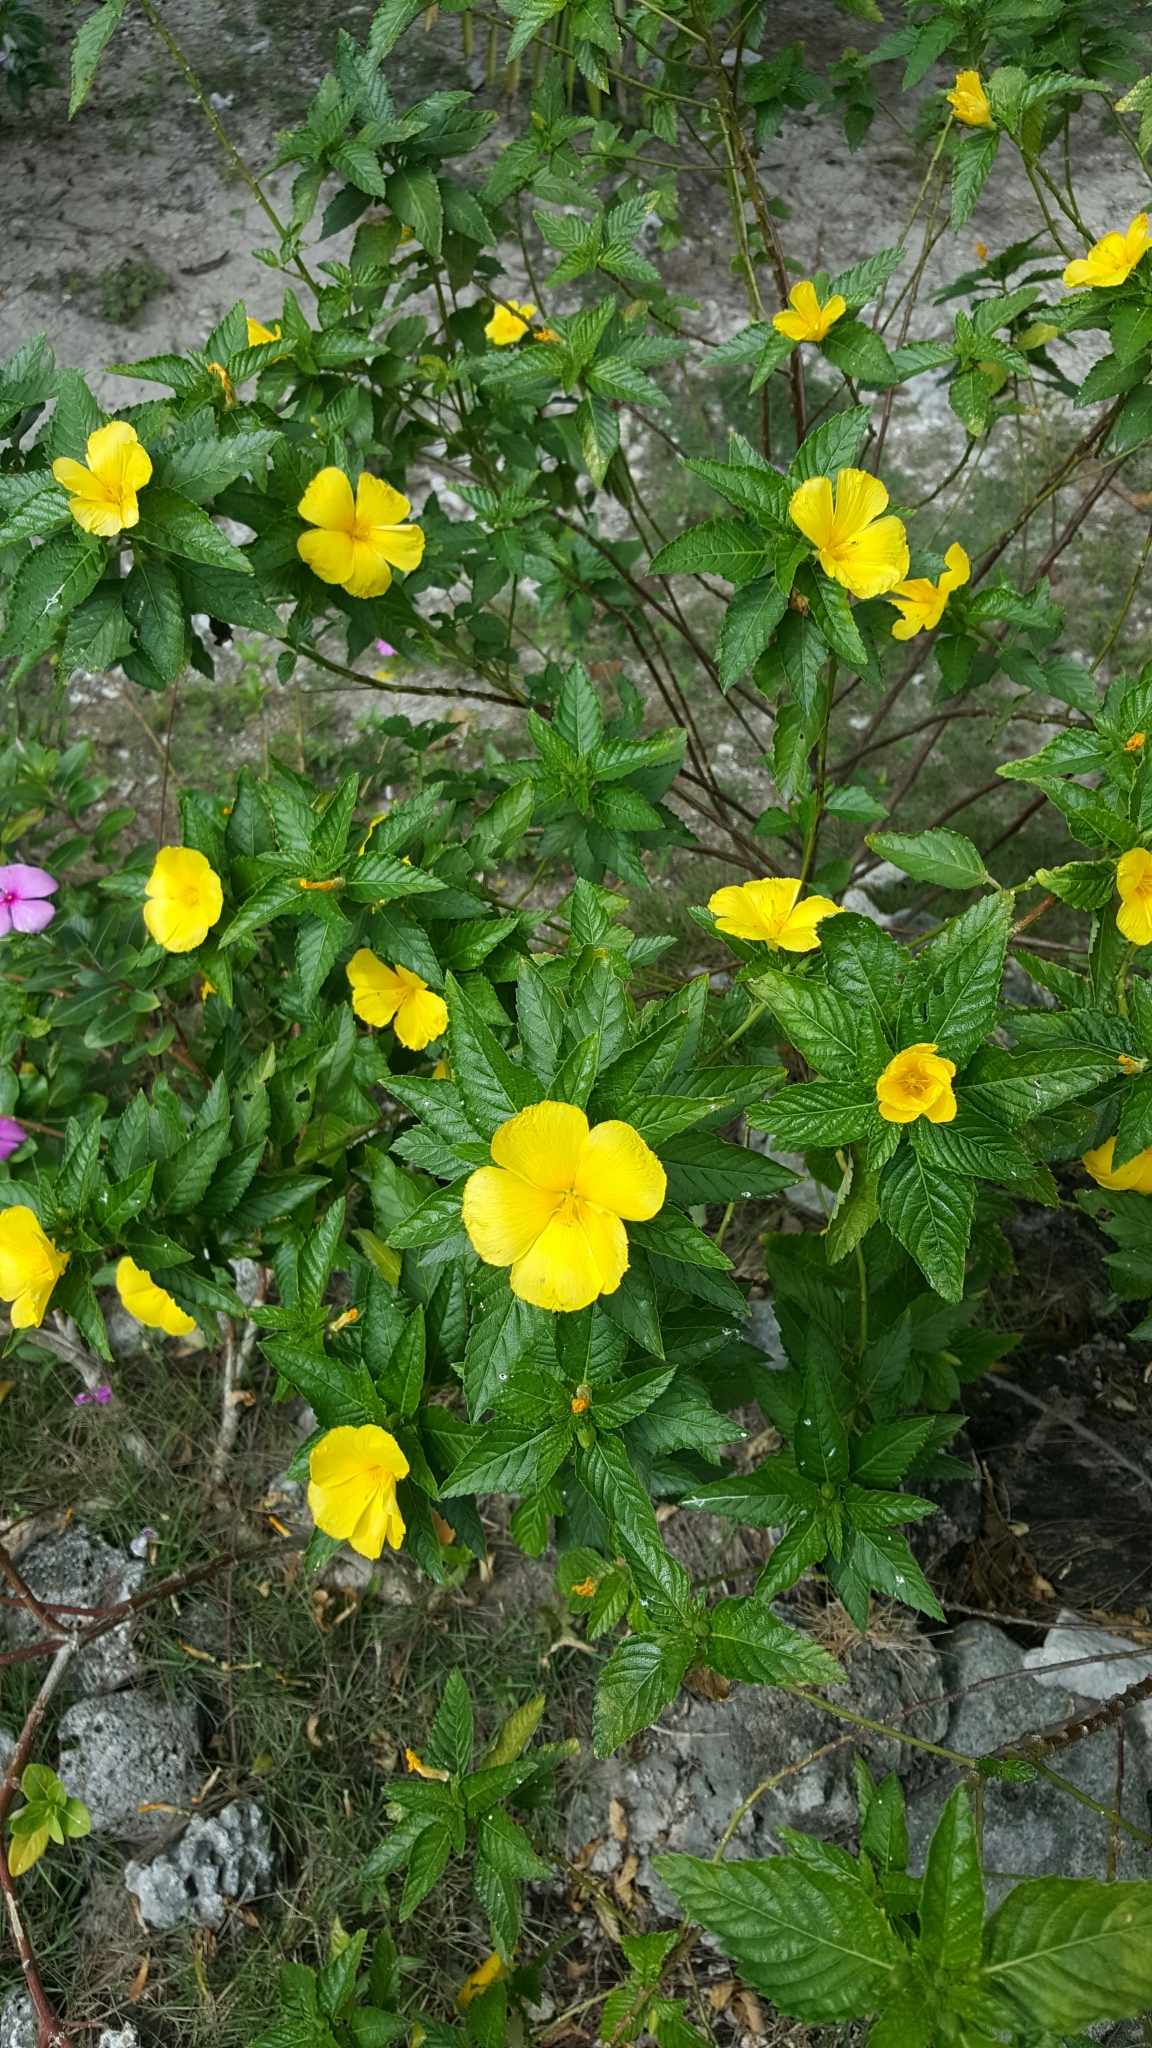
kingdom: Plantae
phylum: Tracheophyta
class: Magnoliopsida
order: Malpighiales
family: Turneraceae
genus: Turnera
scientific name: Turnera ulmifolia
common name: Ramgoat dashalong
